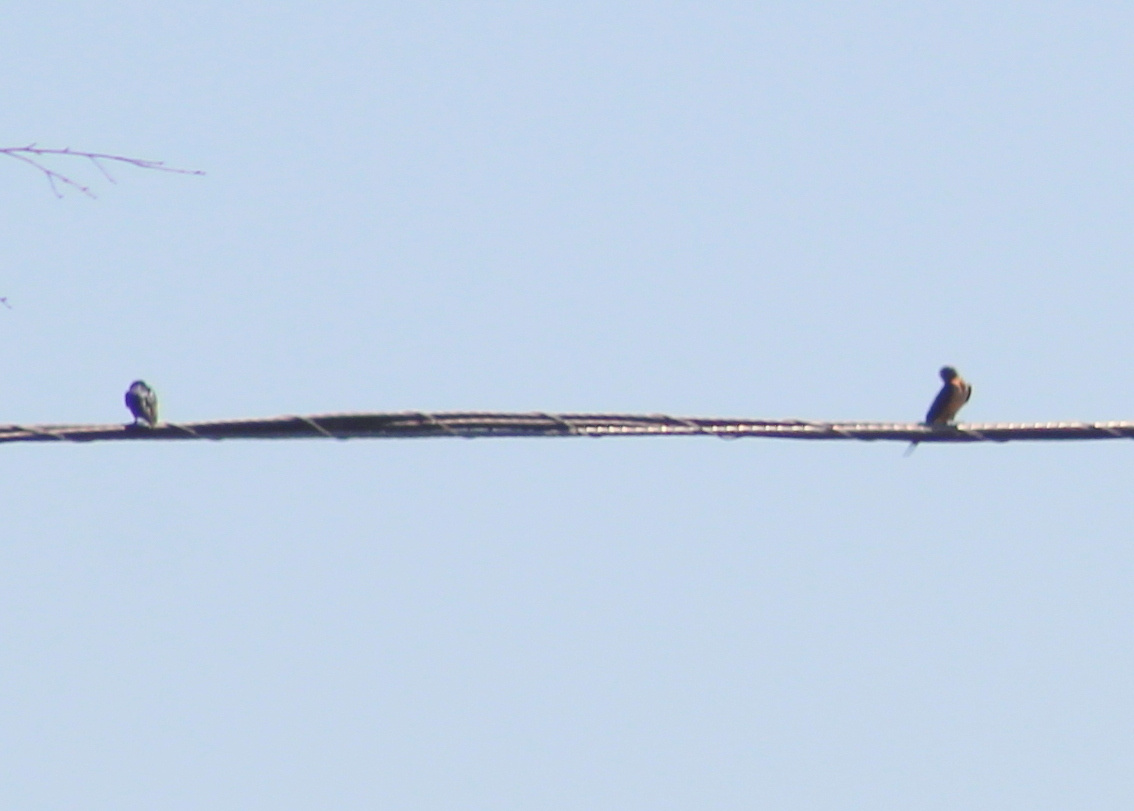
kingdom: Animalia
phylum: Chordata
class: Aves
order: Passeriformes
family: Hirundinidae
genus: Hirundo
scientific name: Hirundo rustica
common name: Barn swallow
